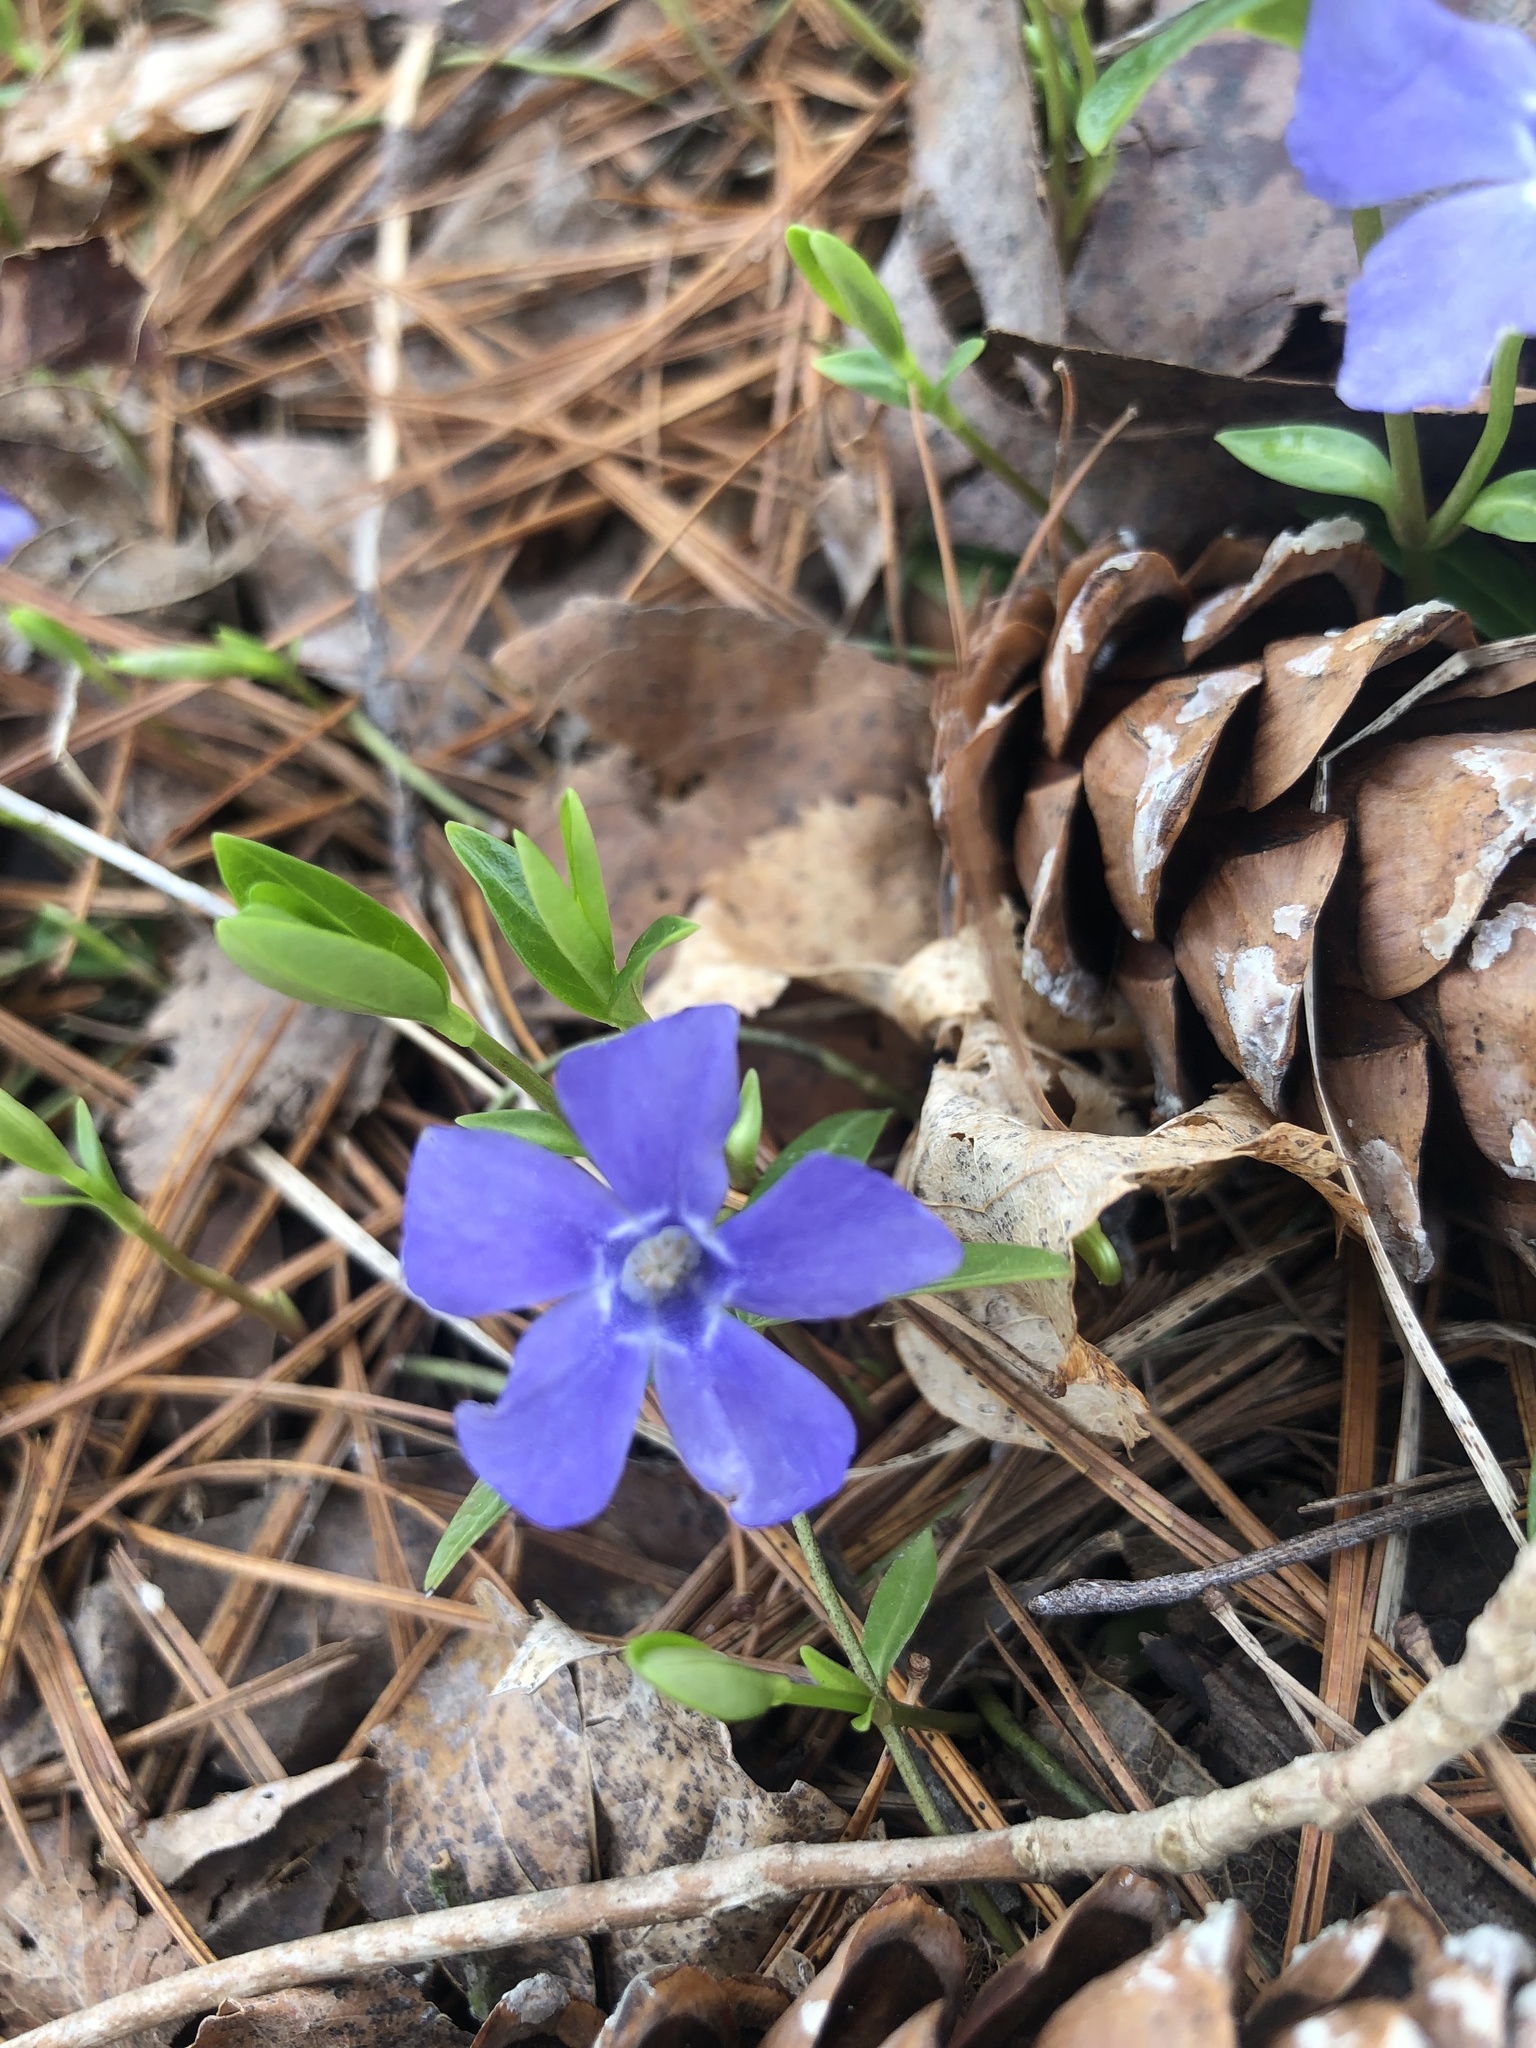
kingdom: Plantae
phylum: Tracheophyta
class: Magnoliopsida
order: Gentianales
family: Apocynaceae
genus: Vinca
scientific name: Vinca minor
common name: Lesser periwinkle
